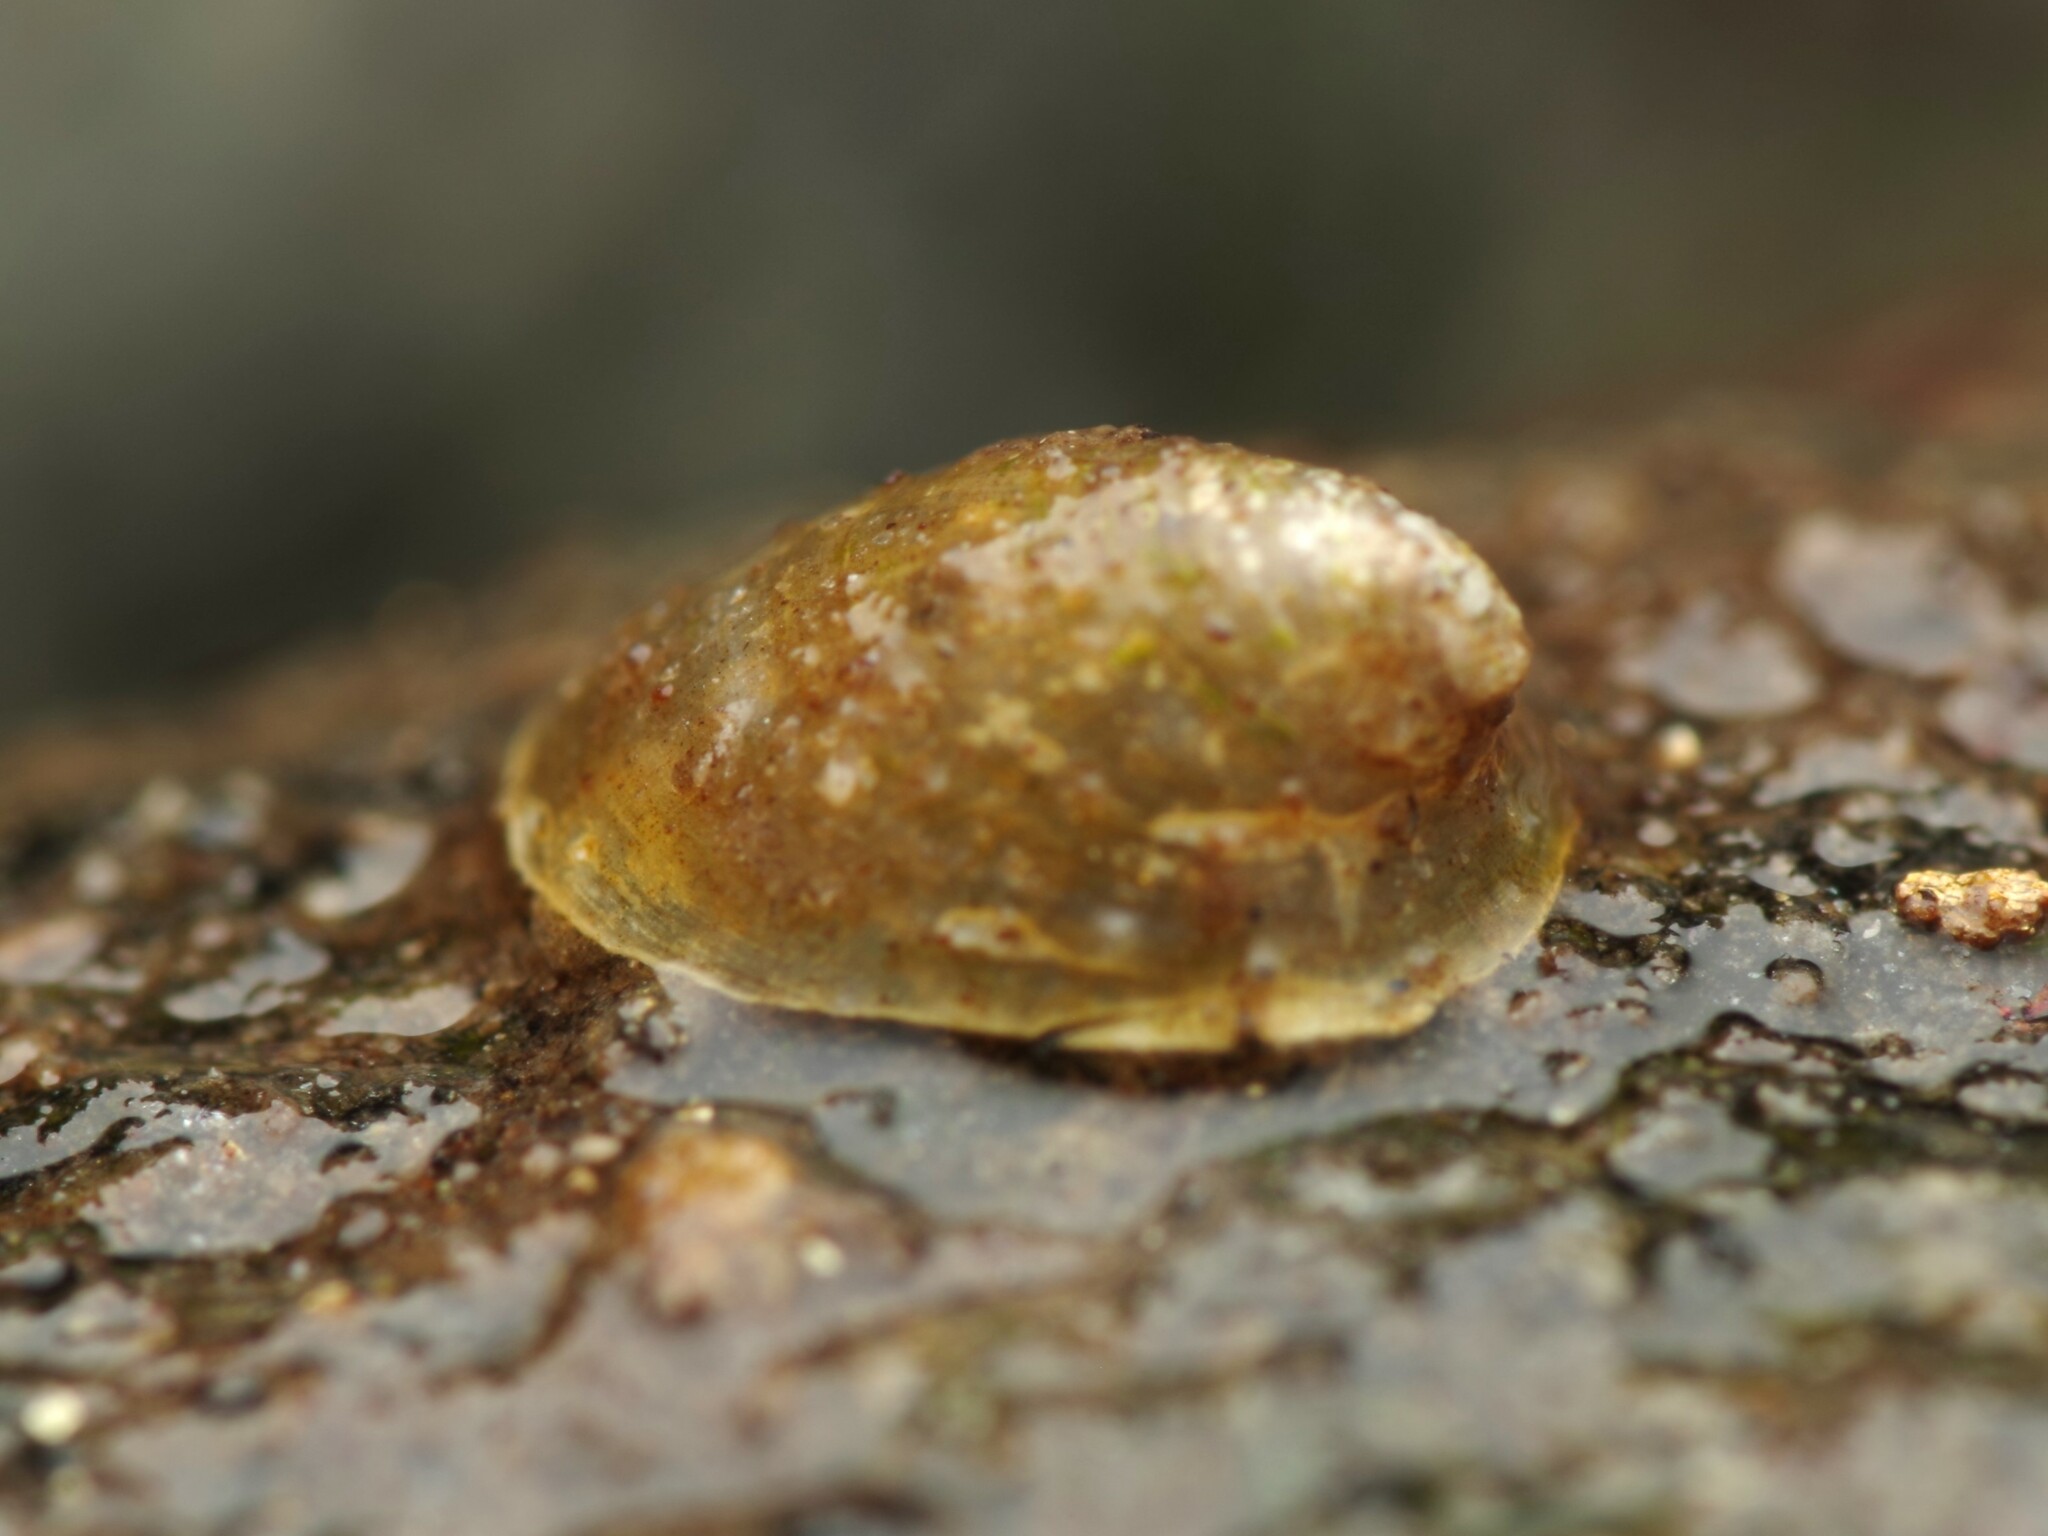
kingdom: Animalia
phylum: Mollusca
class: Gastropoda
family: Planorbidae
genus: Ancylus
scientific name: Ancylus fluviatilis
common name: River limpet
